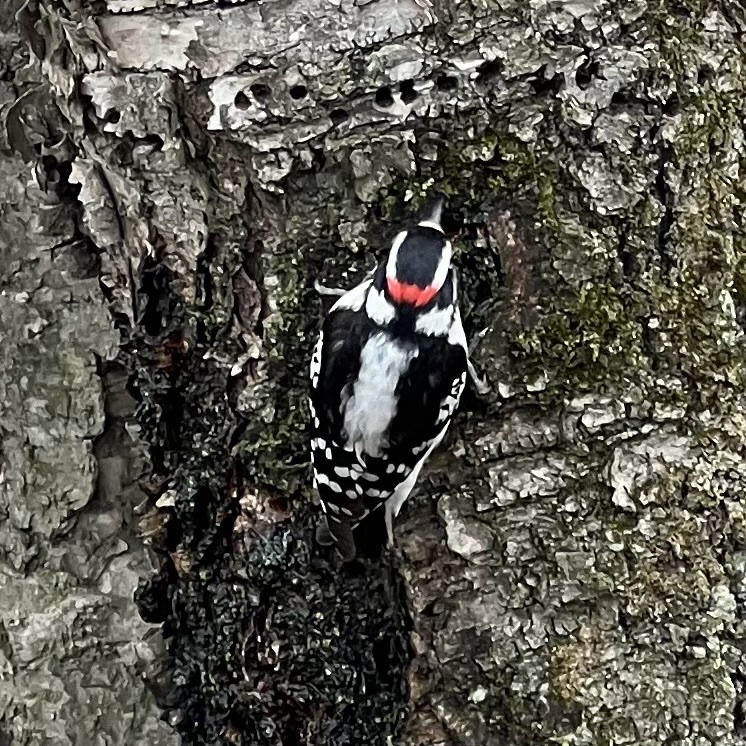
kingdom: Animalia
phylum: Chordata
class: Aves
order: Piciformes
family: Picidae
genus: Dryobates
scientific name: Dryobates pubescens
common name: Downy woodpecker
